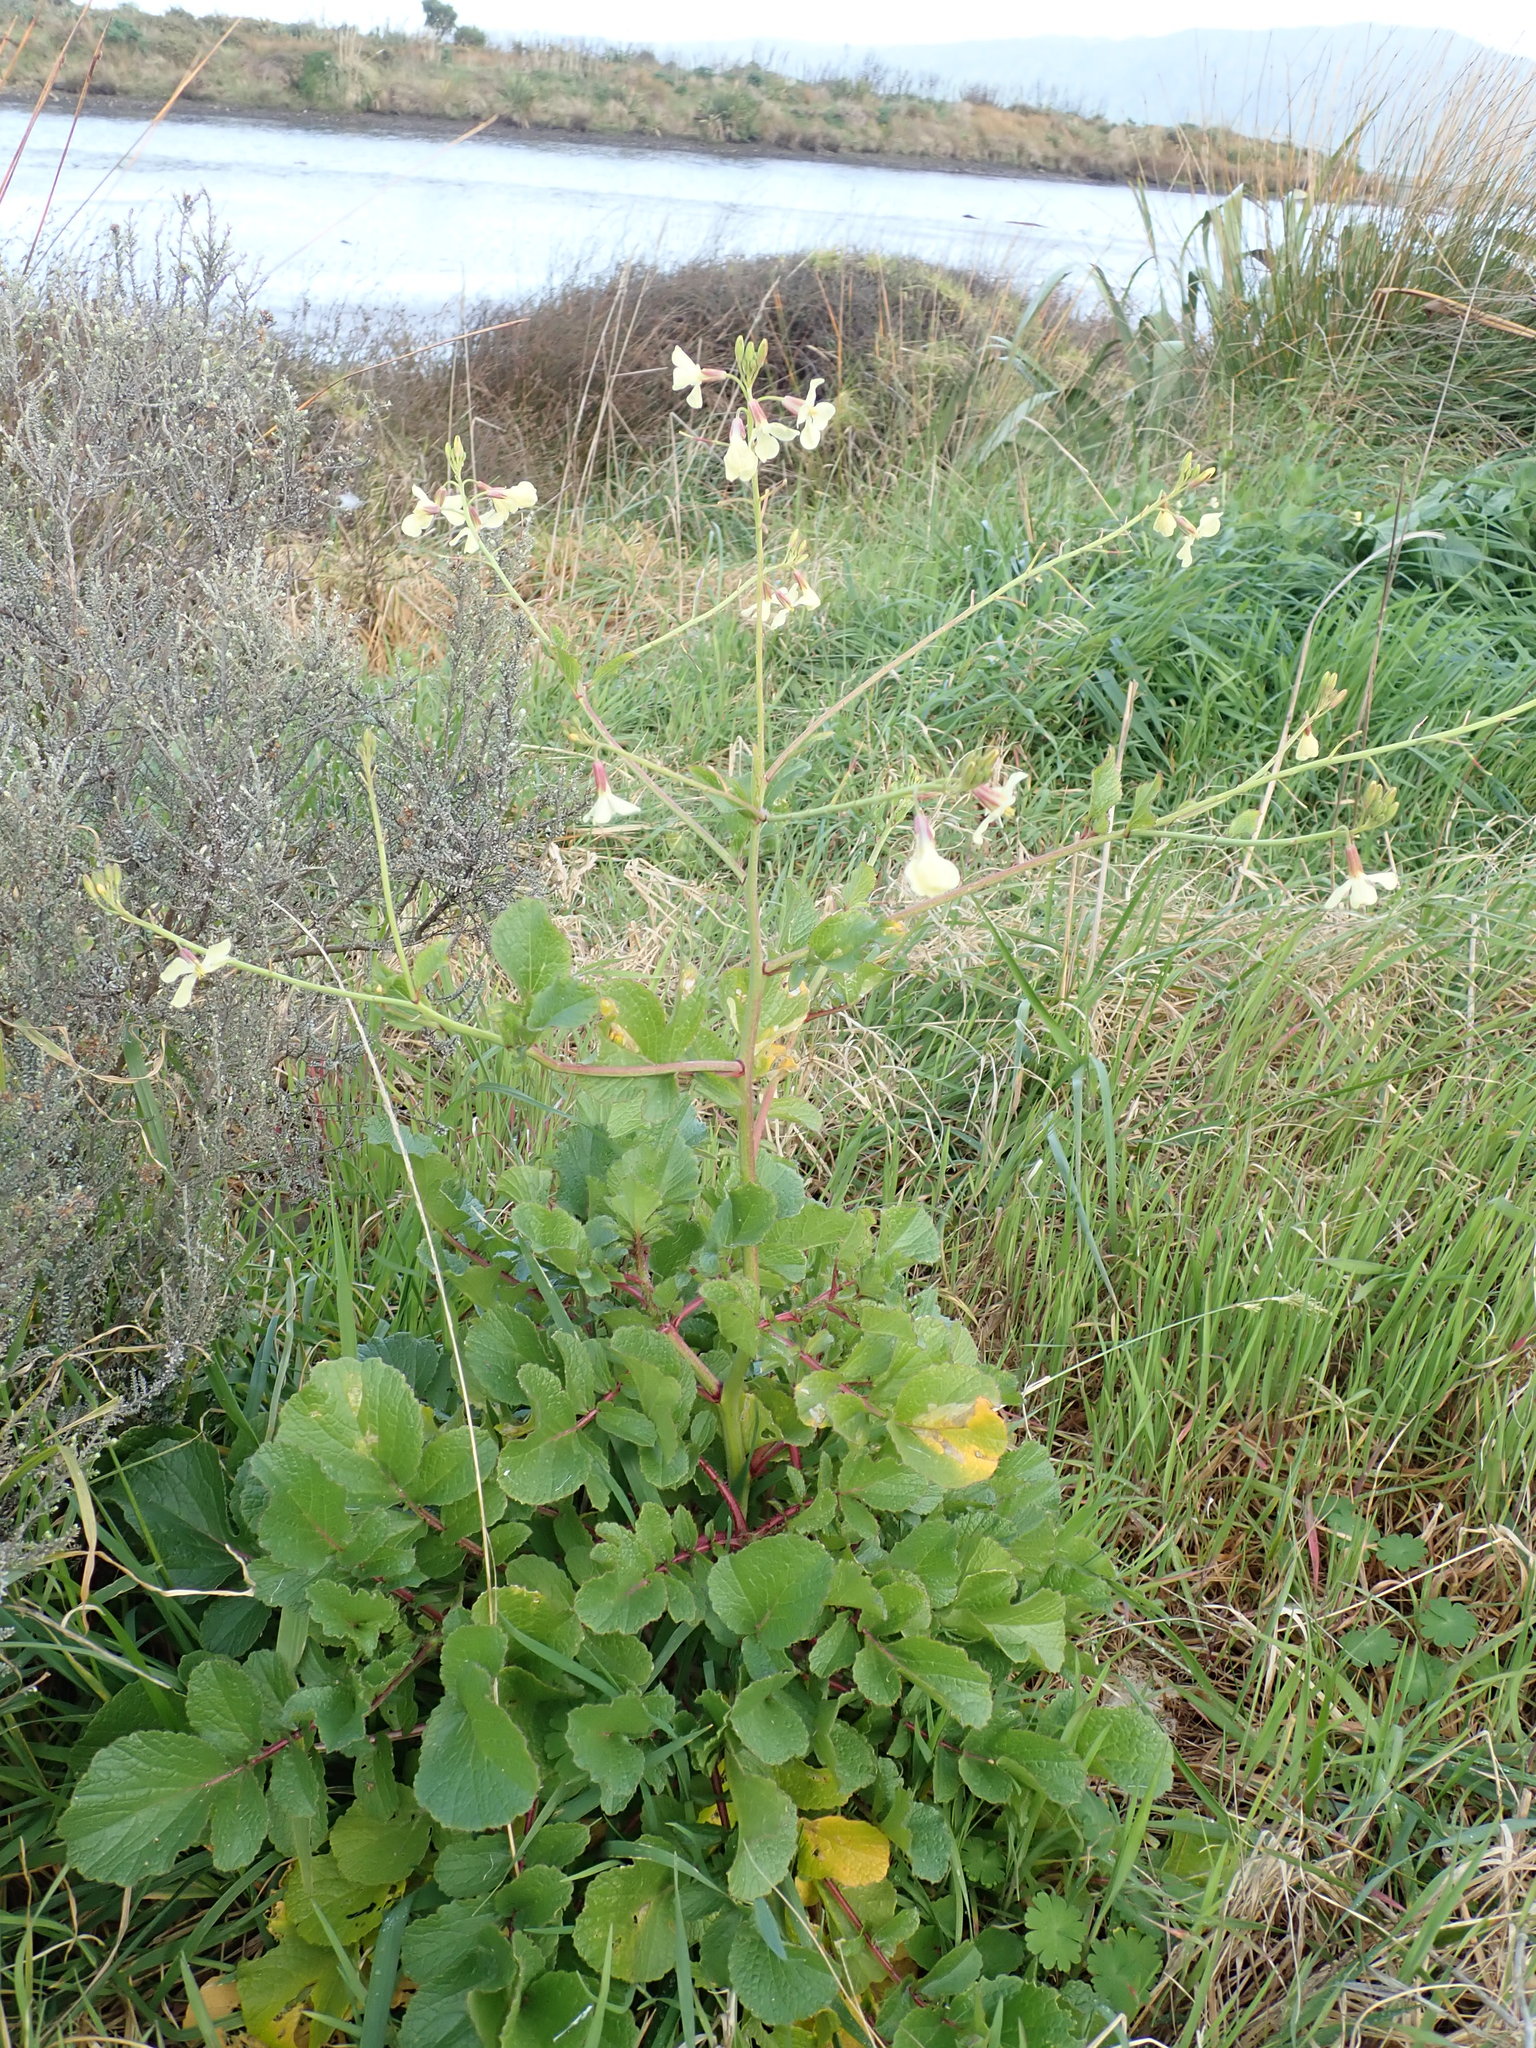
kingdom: Plantae
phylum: Tracheophyta
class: Magnoliopsida
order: Brassicales
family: Brassicaceae
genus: Raphanus
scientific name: Raphanus raphanistrum
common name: Wild radish
